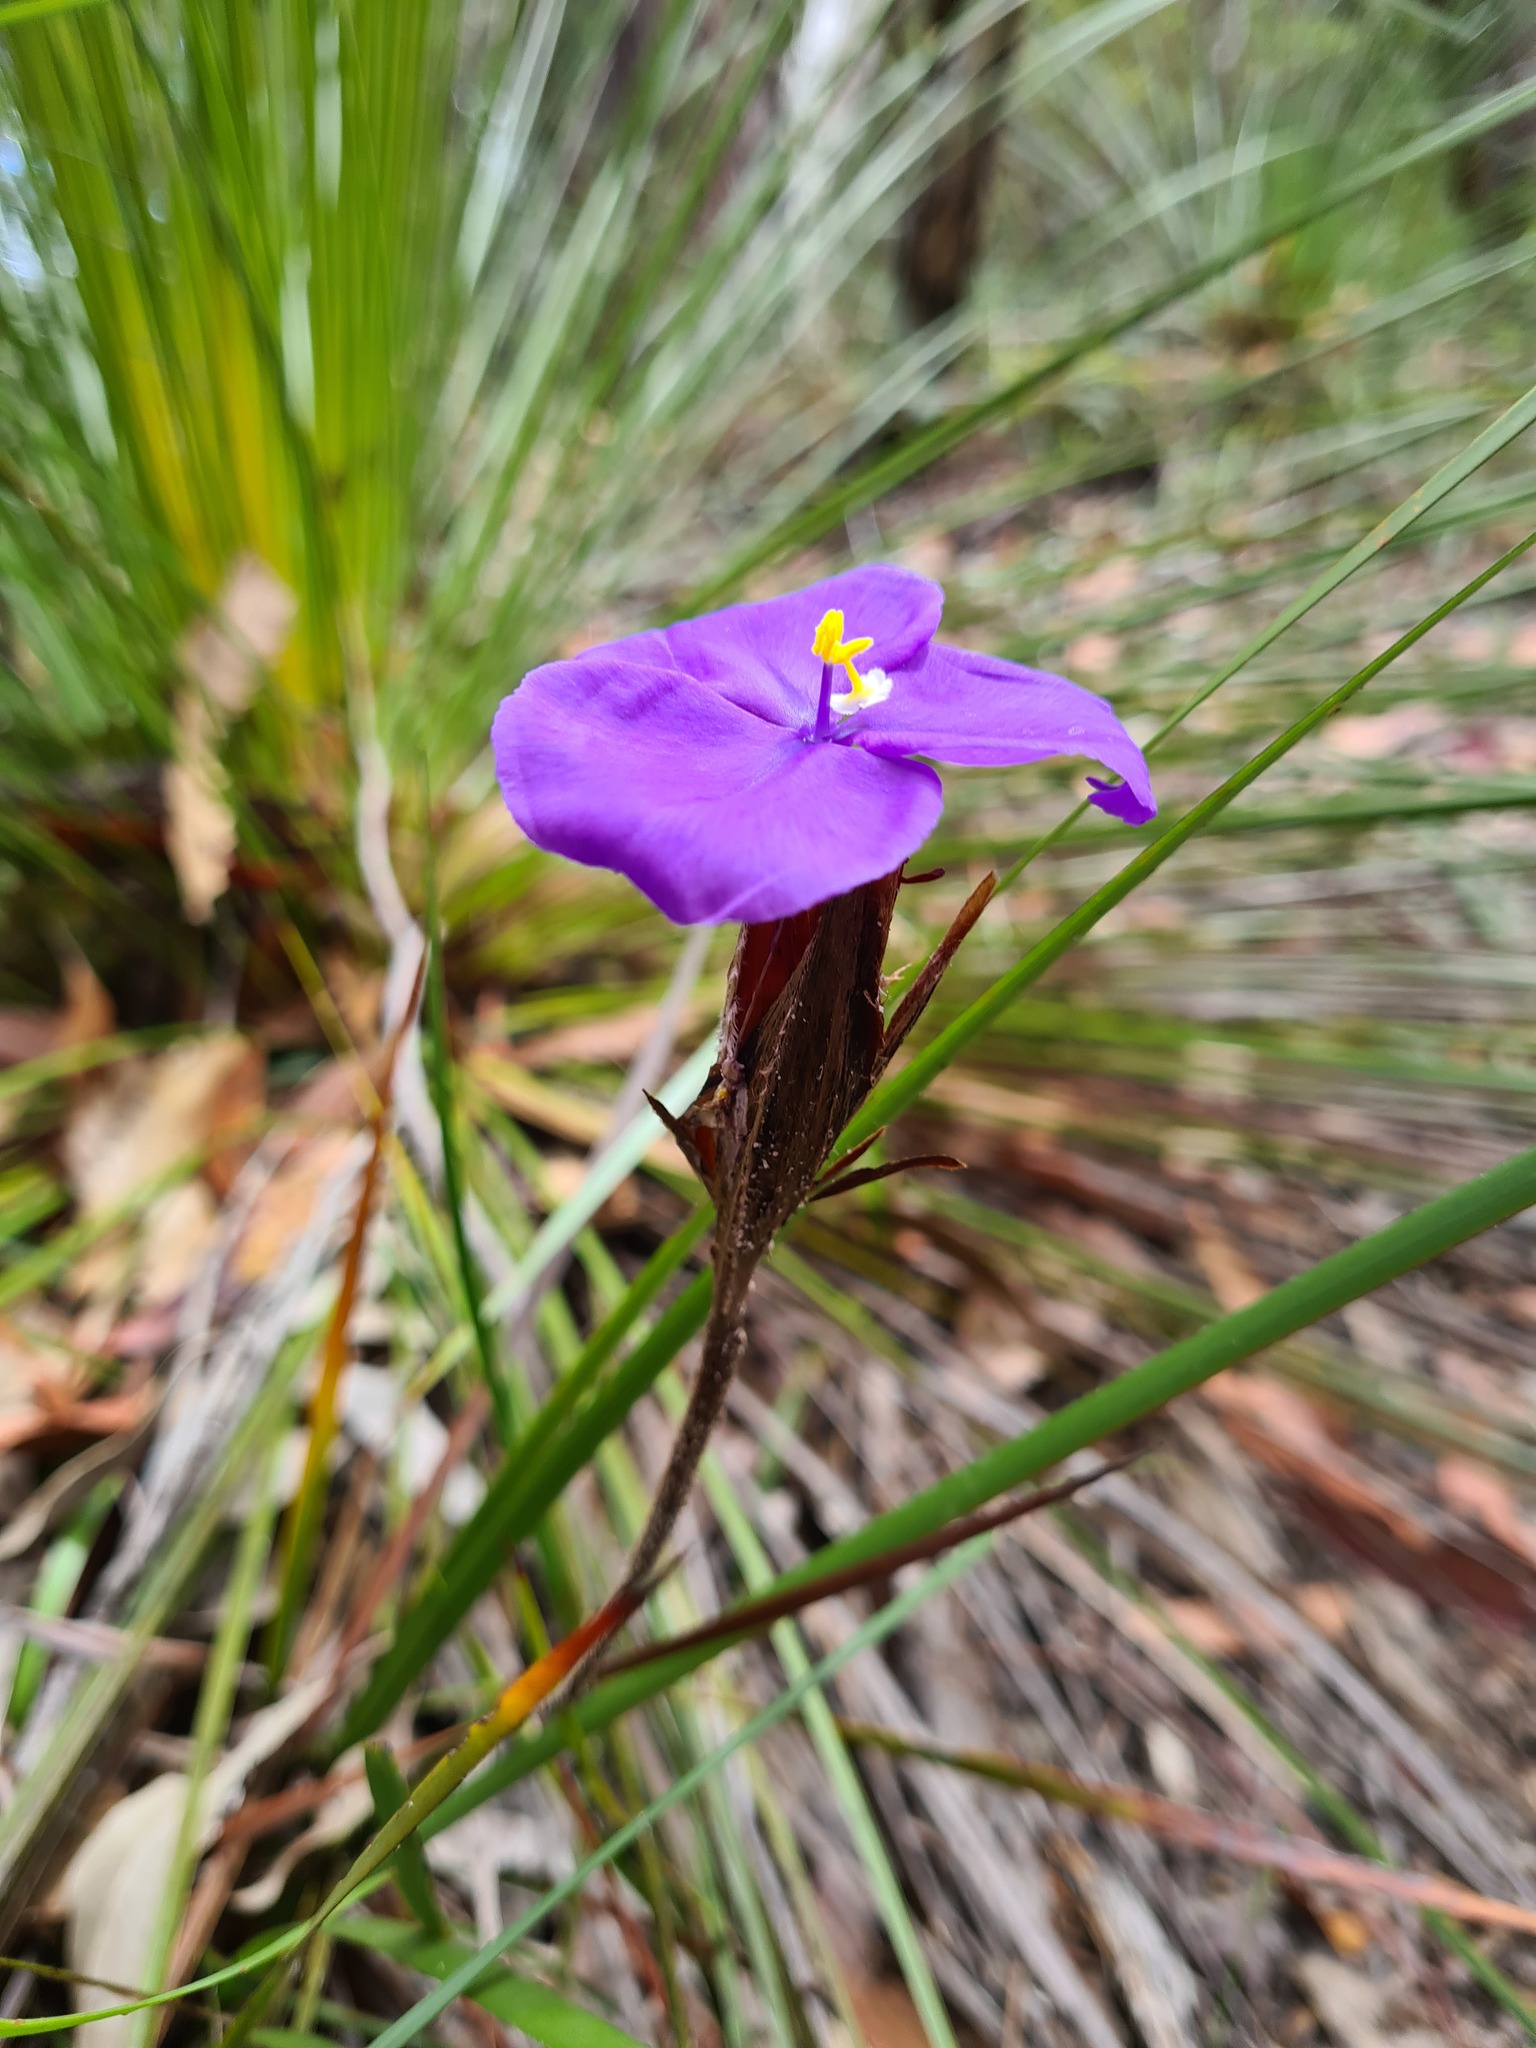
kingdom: Plantae
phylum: Tracheophyta
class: Liliopsida
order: Asparagales
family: Iridaceae
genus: Patersonia
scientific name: Patersonia sericea
